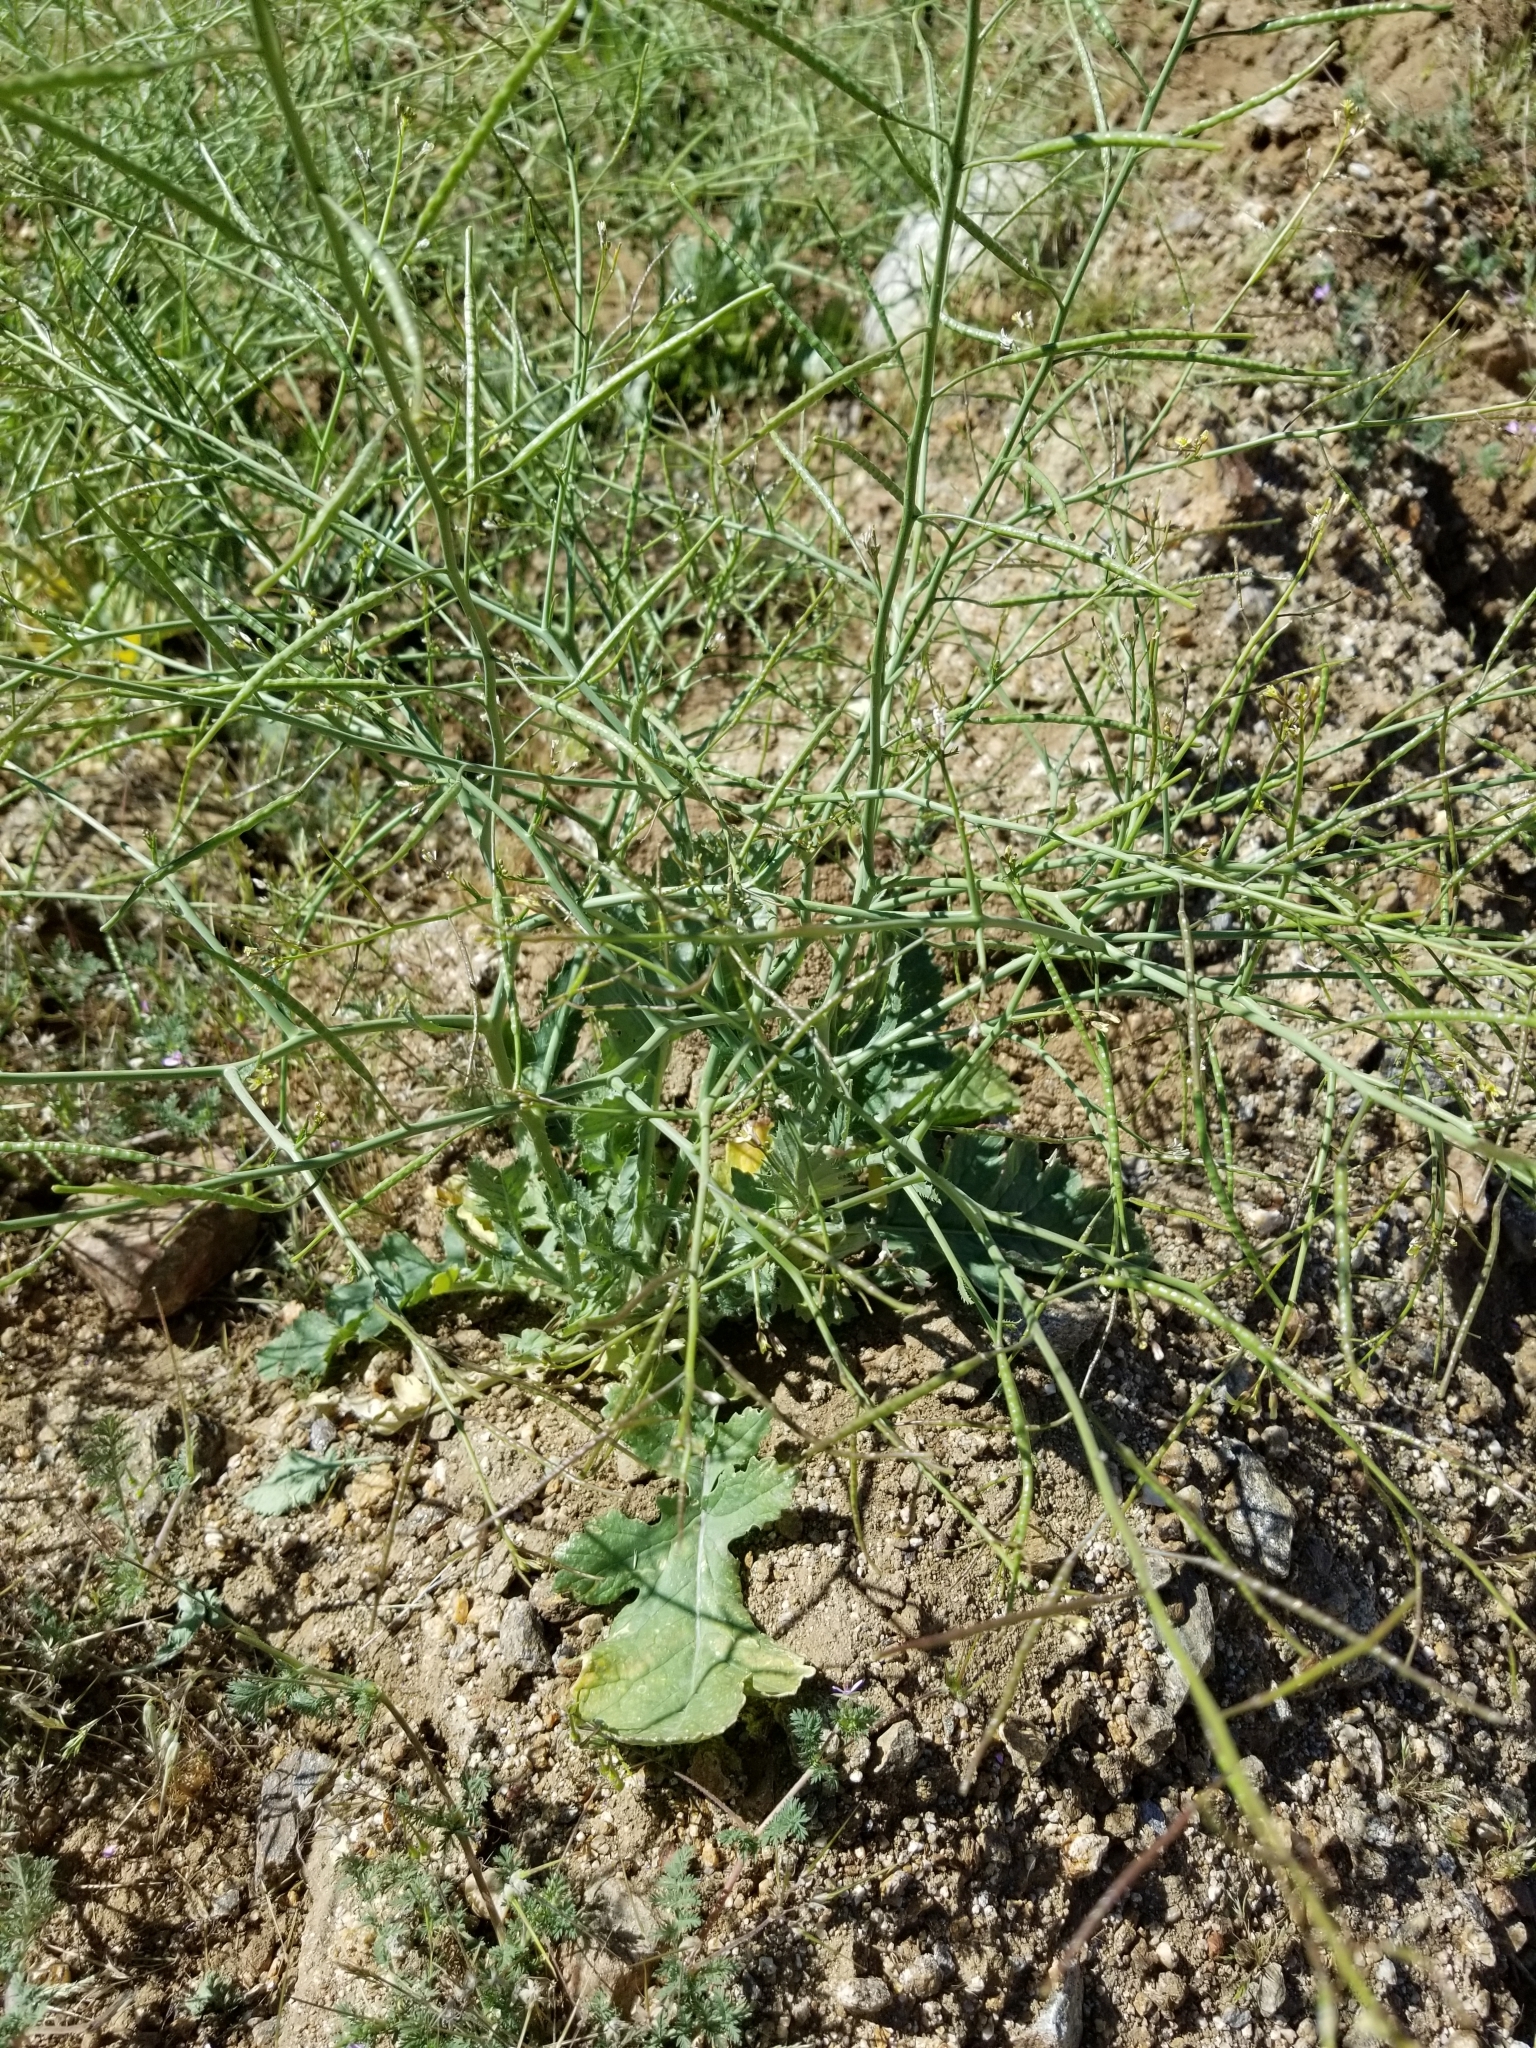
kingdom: Plantae
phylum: Tracheophyta
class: Magnoliopsida
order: Brassicales
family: Brassicaceae
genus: Brassica
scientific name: Brassica tournefortii
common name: Pale cabbage
